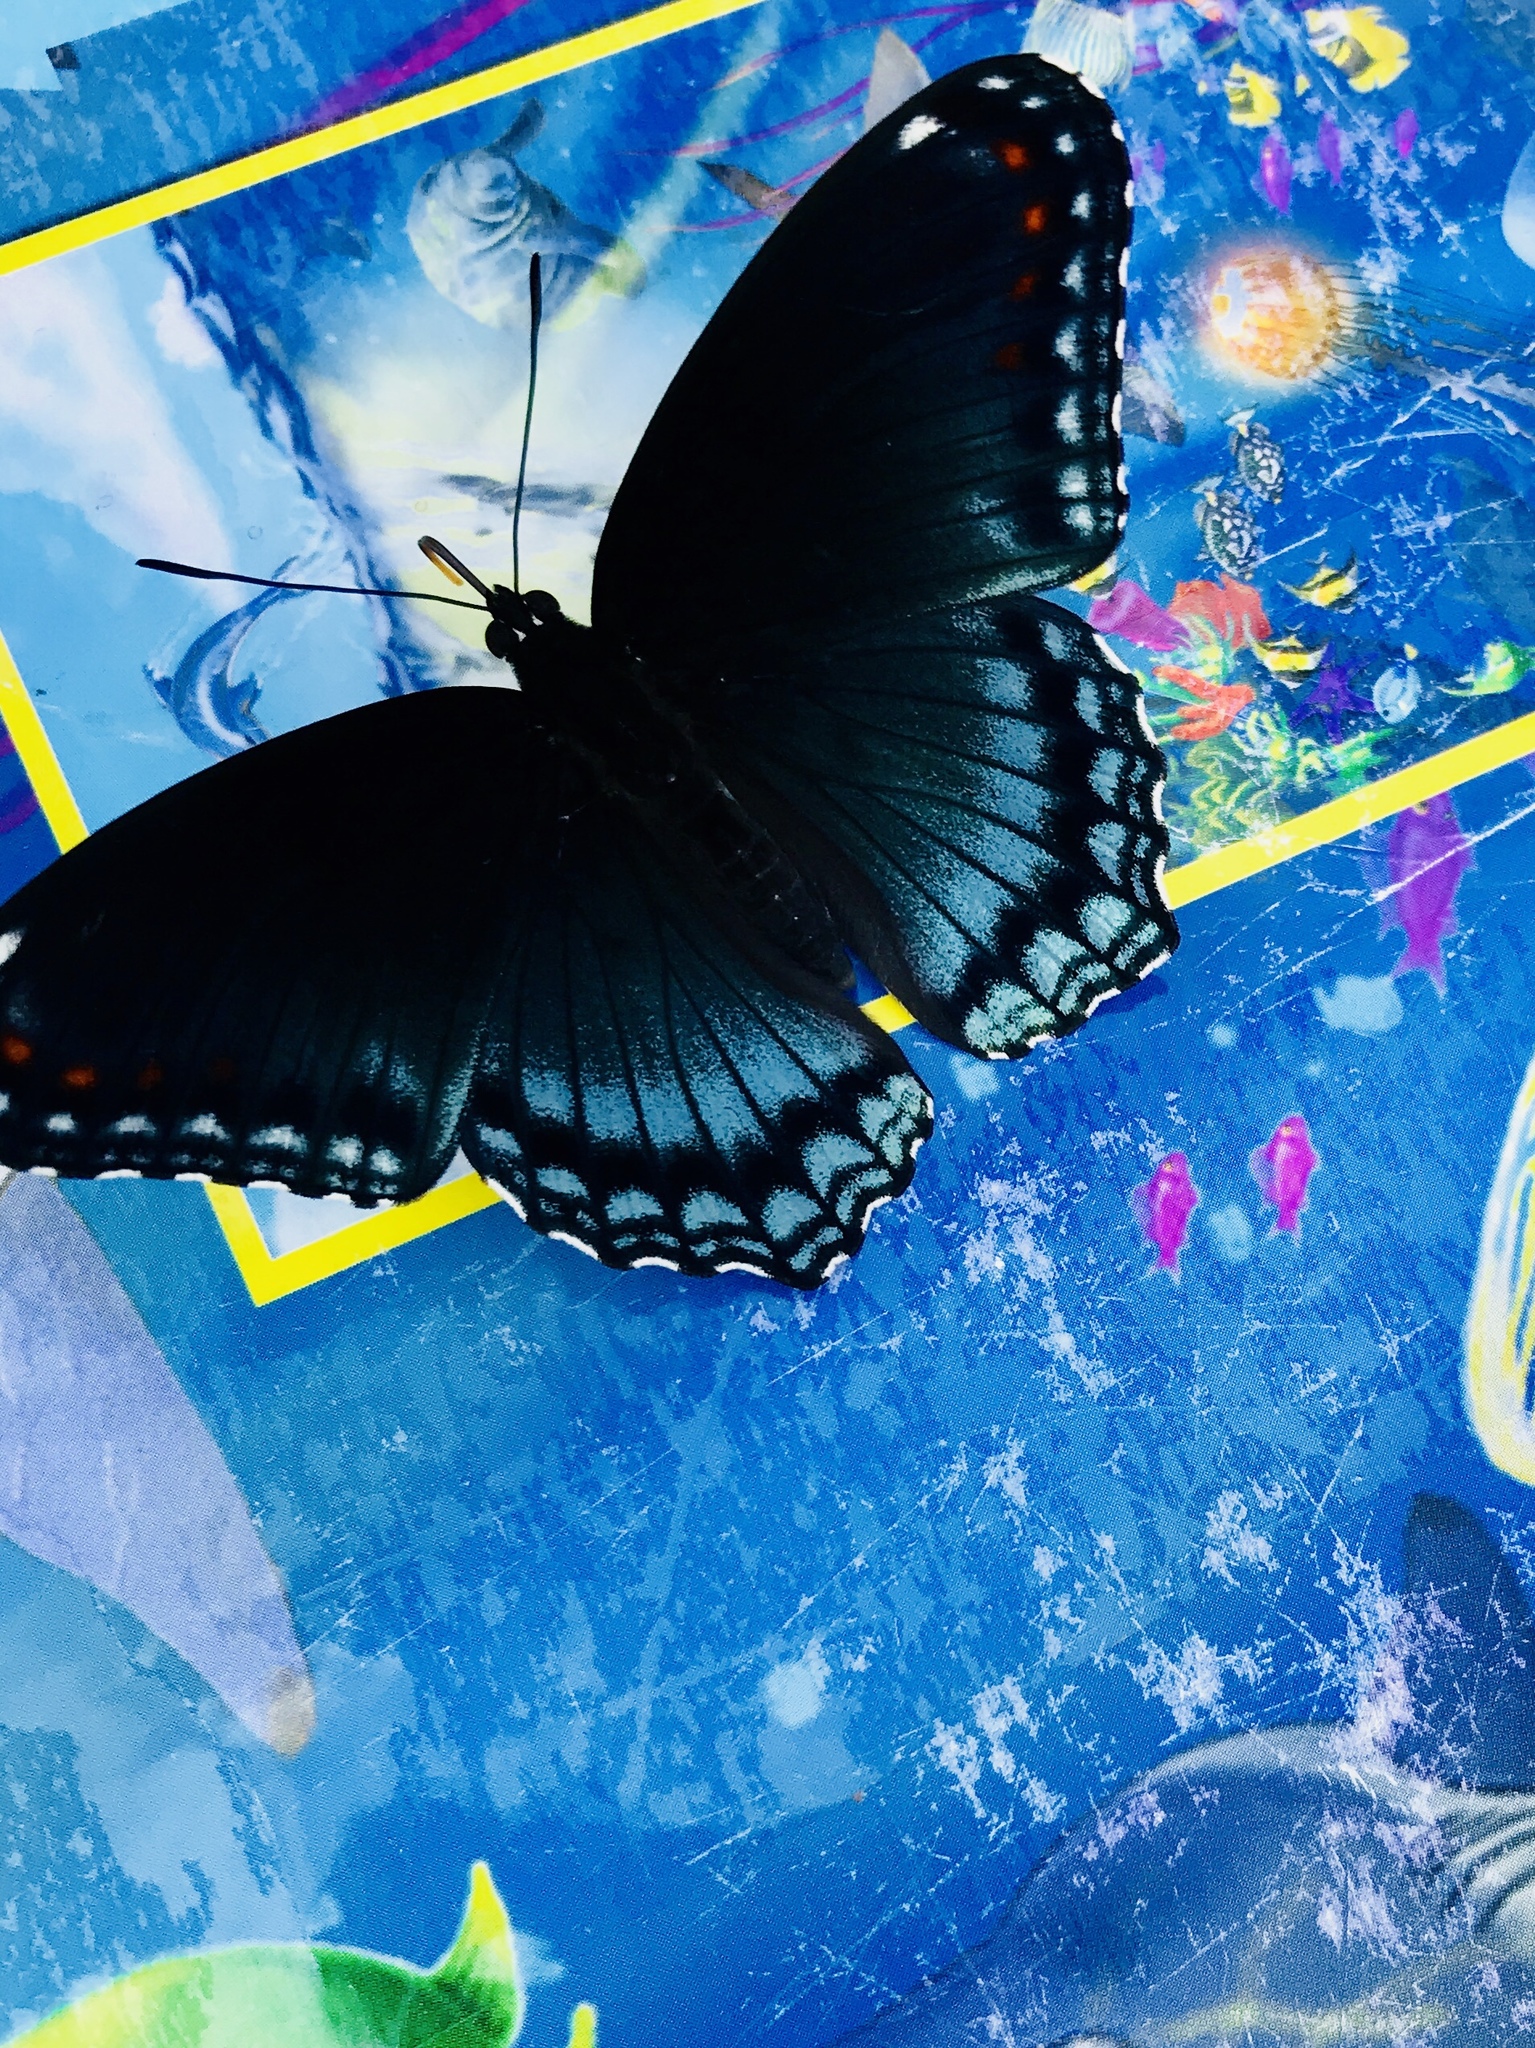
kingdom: Animalia
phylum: Arthropoda
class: Insecta
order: Lepidoptera
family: Nymphalidae
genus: Limenitis
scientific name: Limenitis arthemis
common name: Red-spotted admiral
